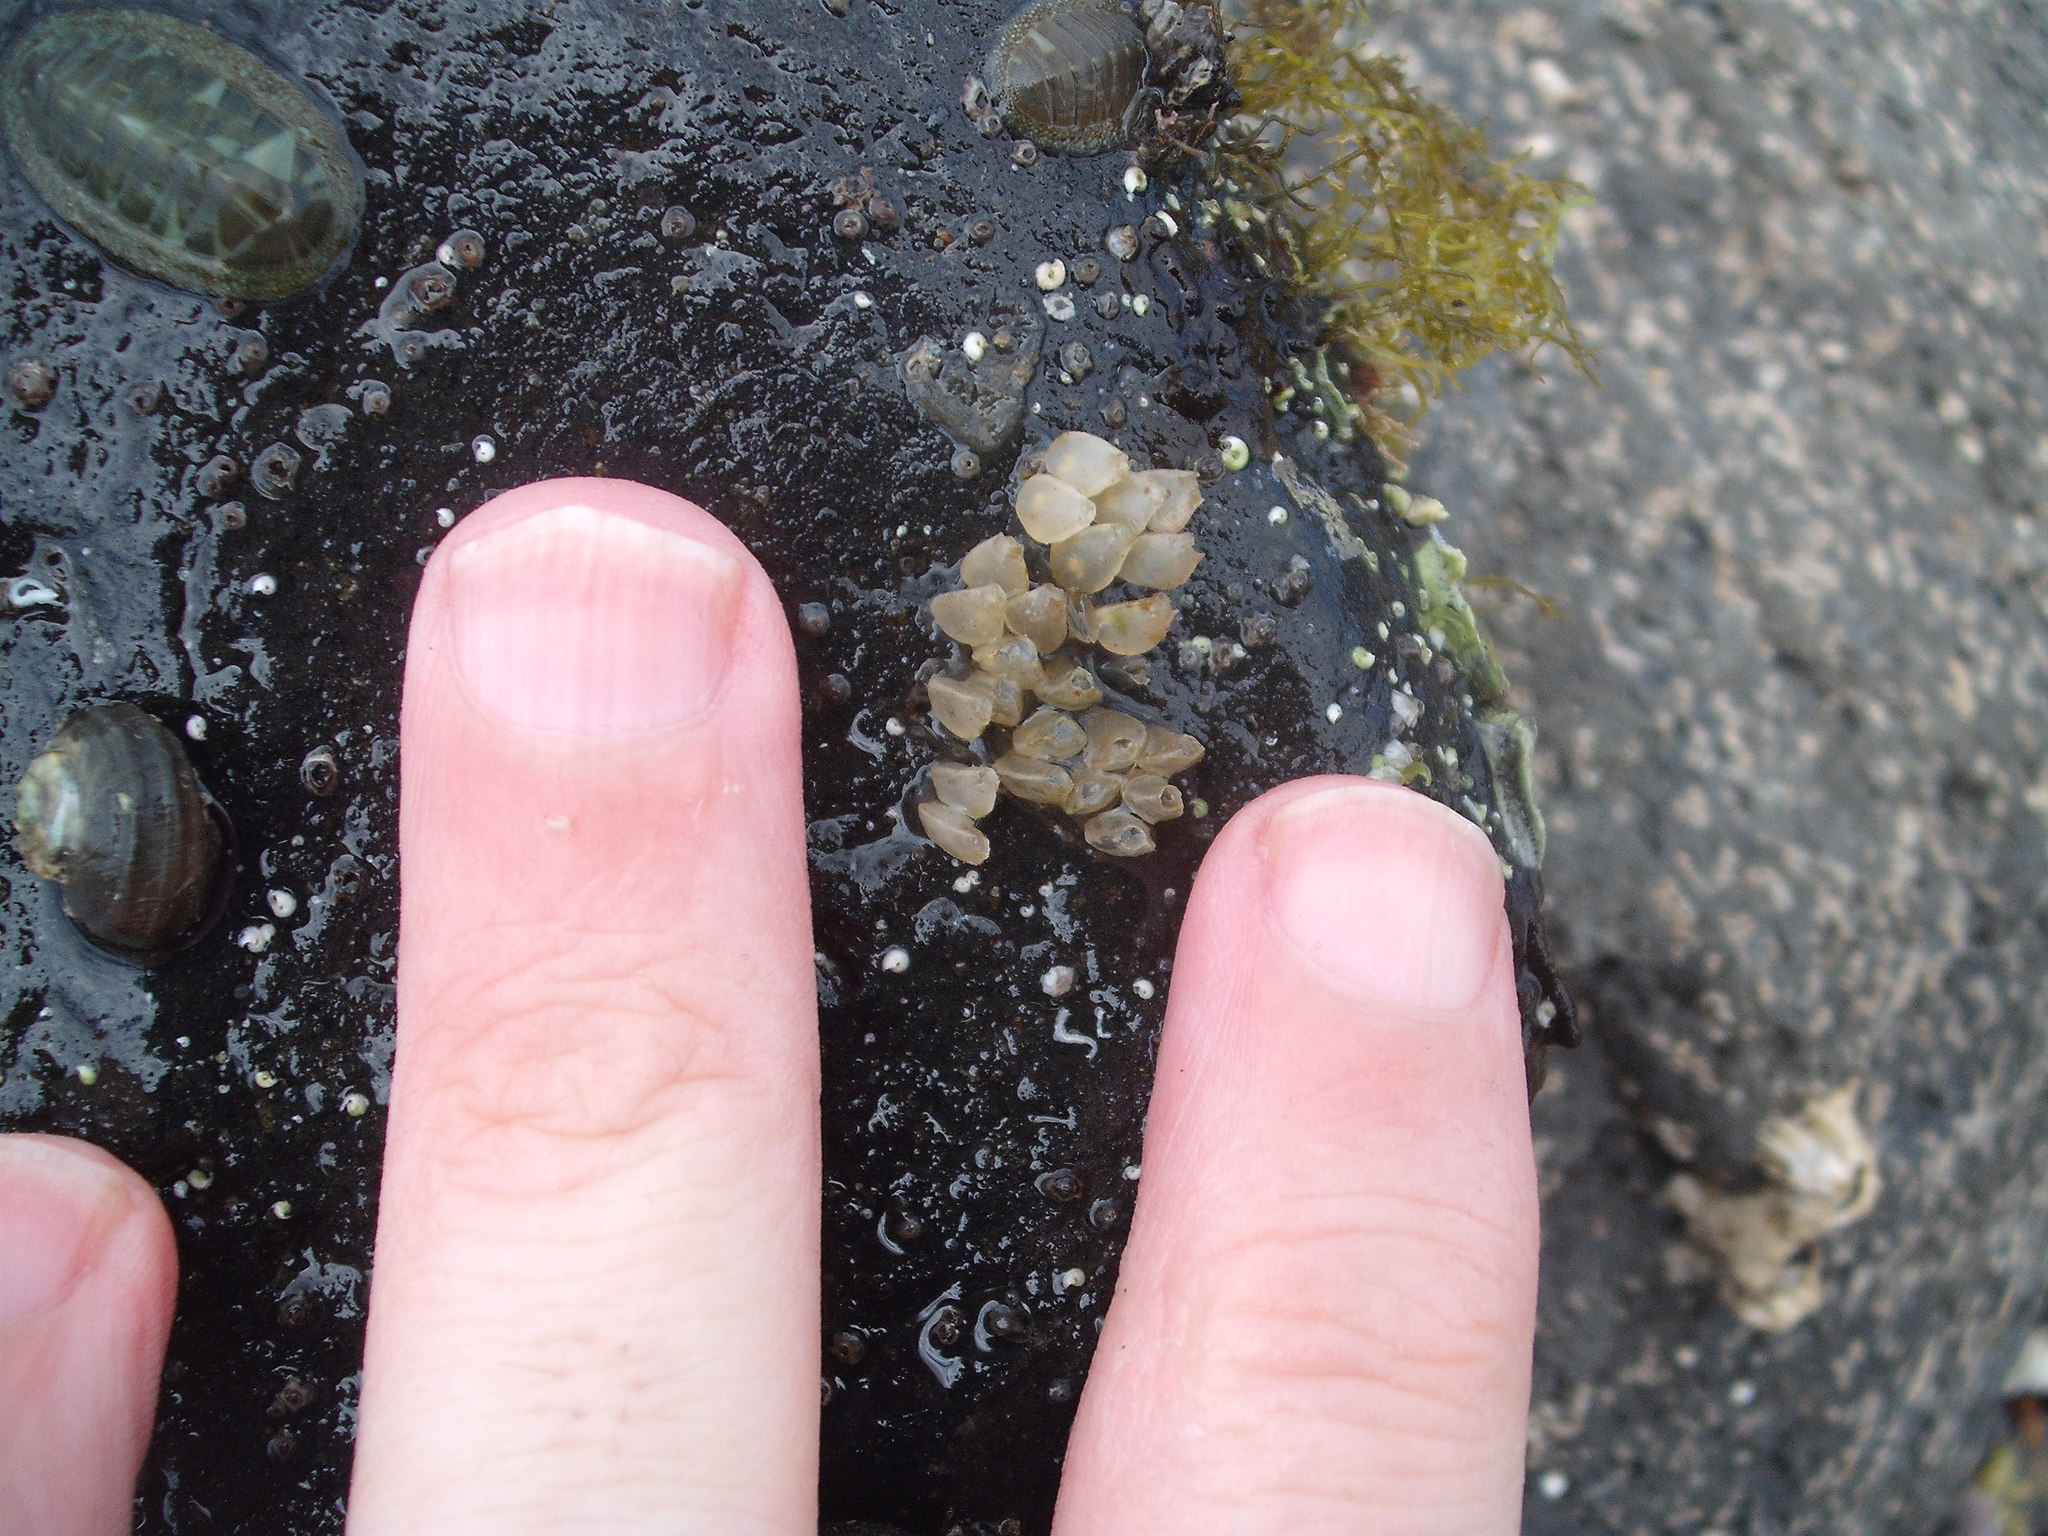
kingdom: Animalia
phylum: Mollusca
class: Gastropoda
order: Neogastropoda
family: Cominellidae
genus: Cominella
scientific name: Cominella maculosa
